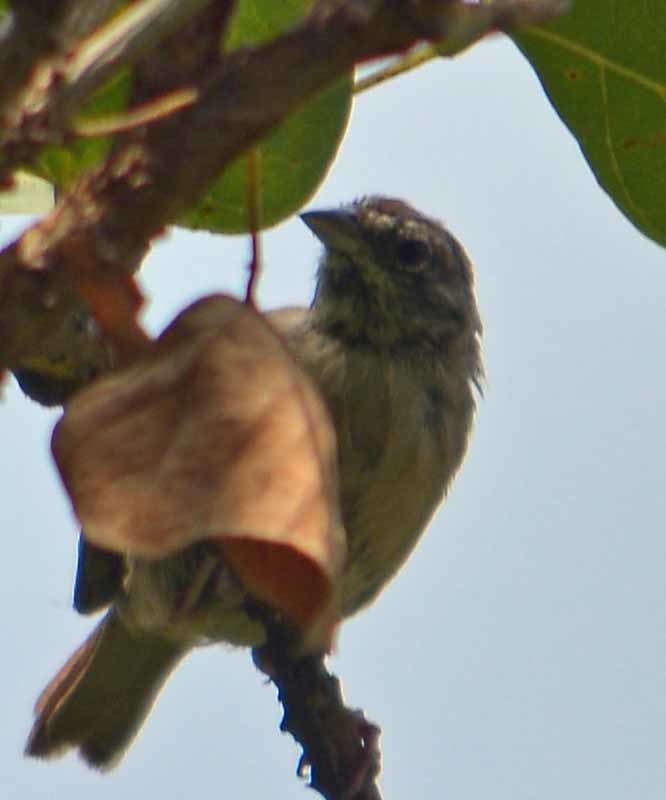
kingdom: Animalia
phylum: Chordata
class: Aves
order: Passeriformes
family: Passerellidae
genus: Aimophila
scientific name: Aimophila ruficeps
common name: Rufous-crowned sparrow
